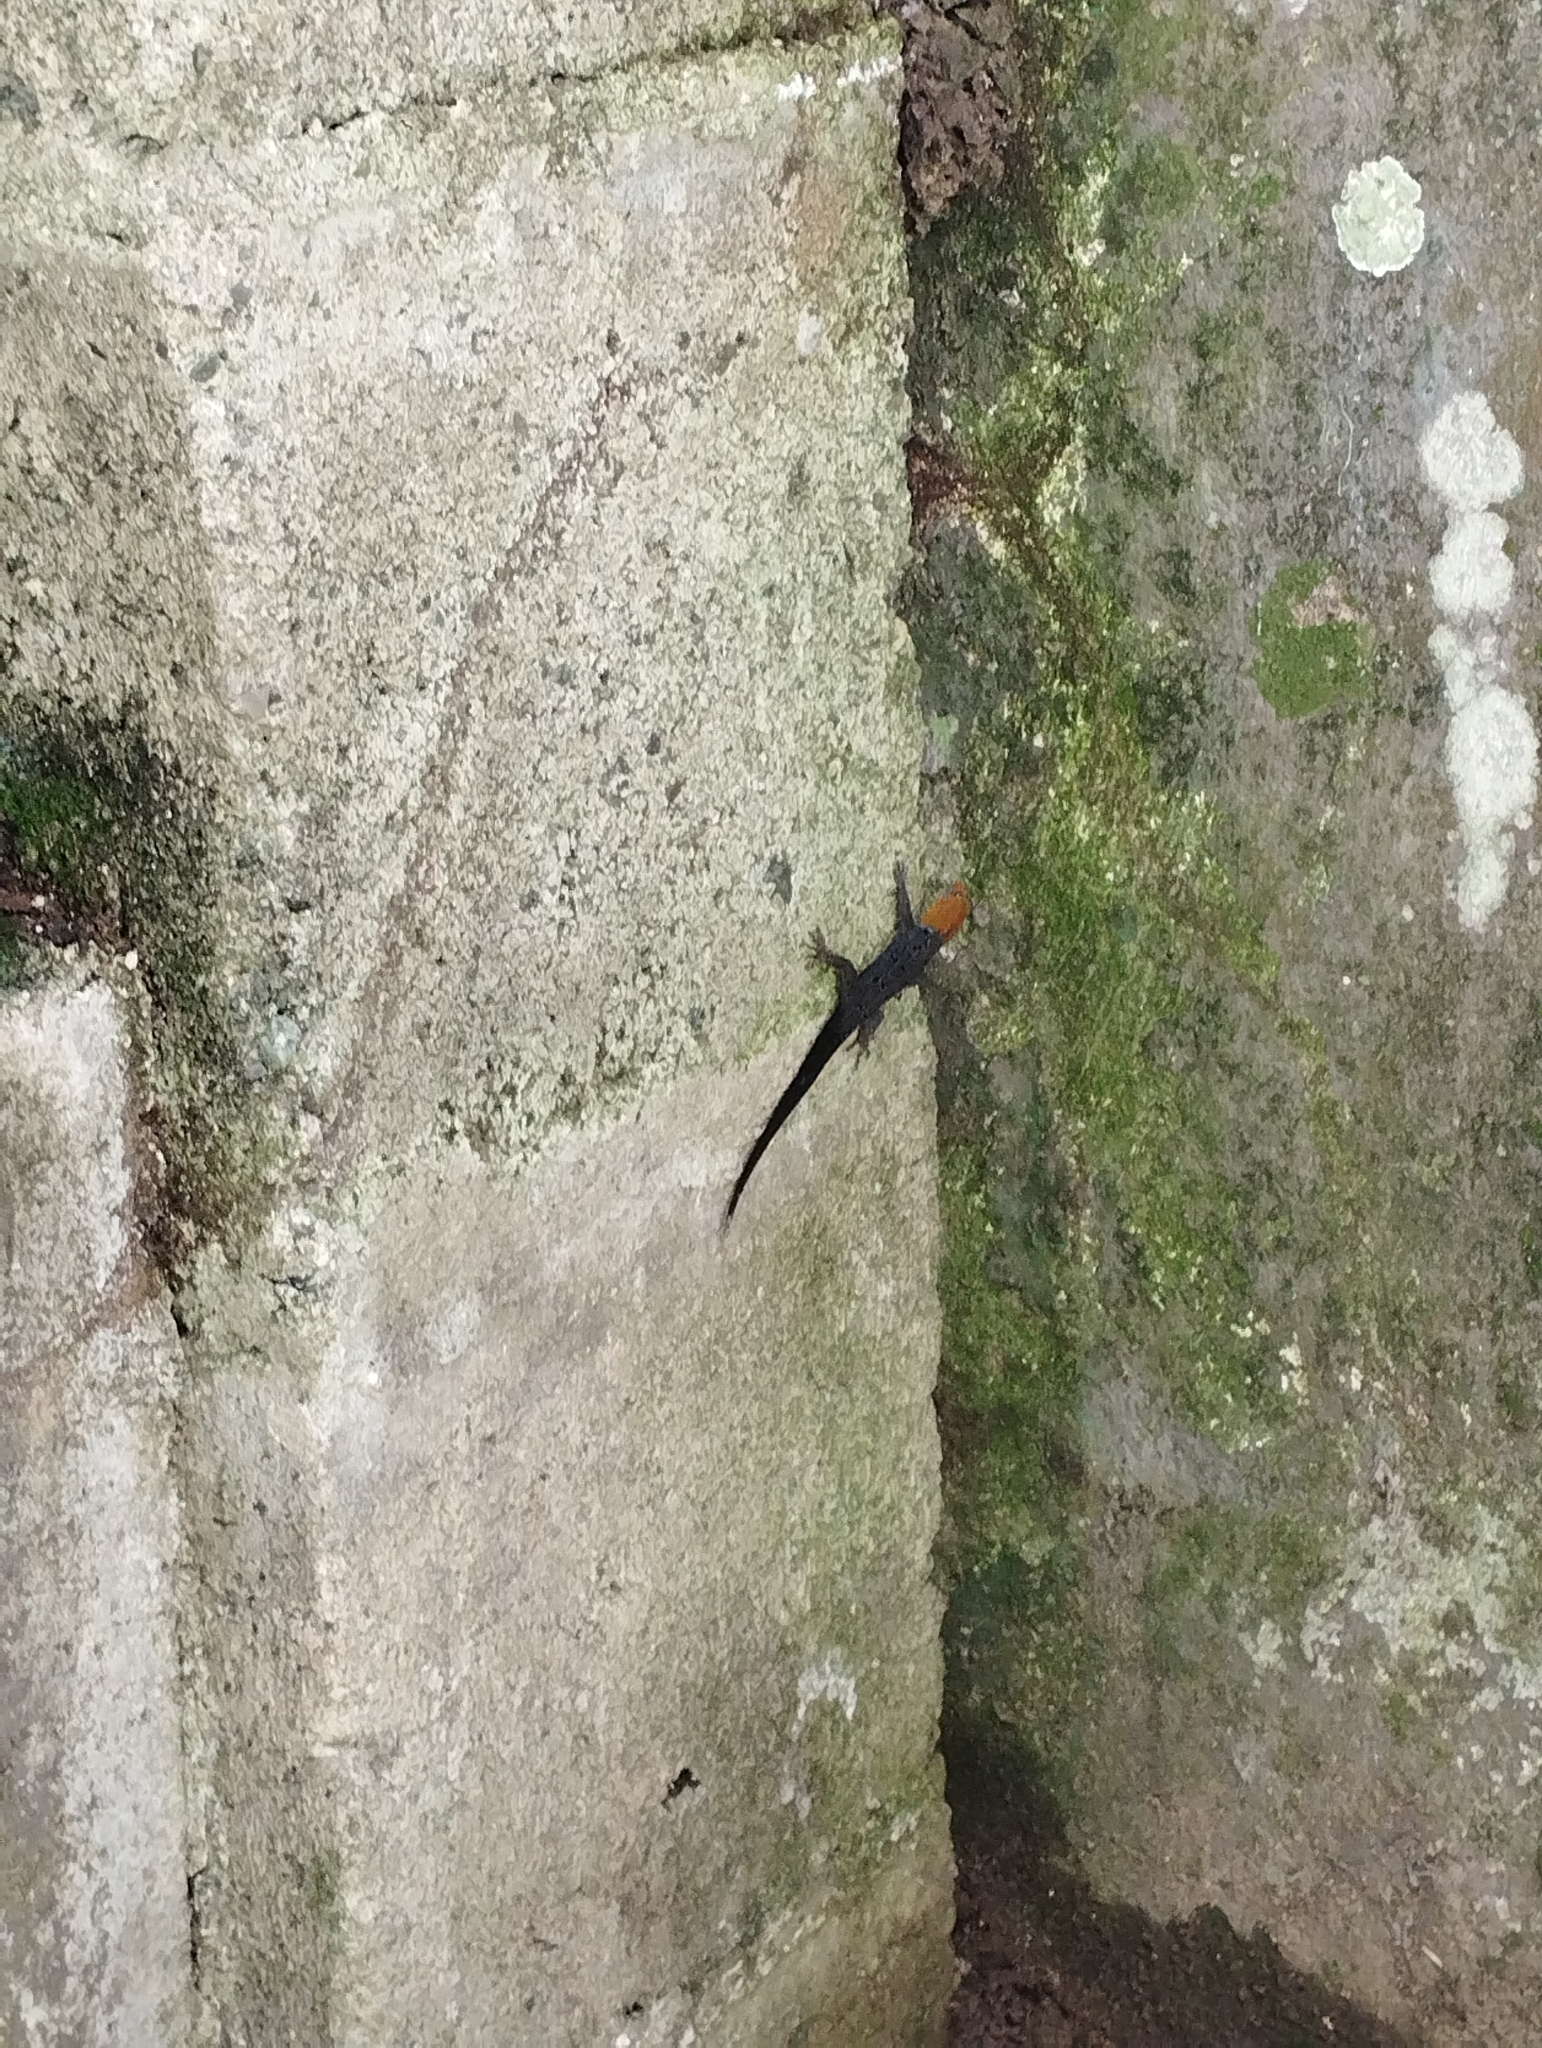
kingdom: Animalia
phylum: Chordata
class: Squamata
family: Sphaerodactylidae
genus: Gonatodes
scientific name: Gonatodes albogularis
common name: Yellow-headed gecko
